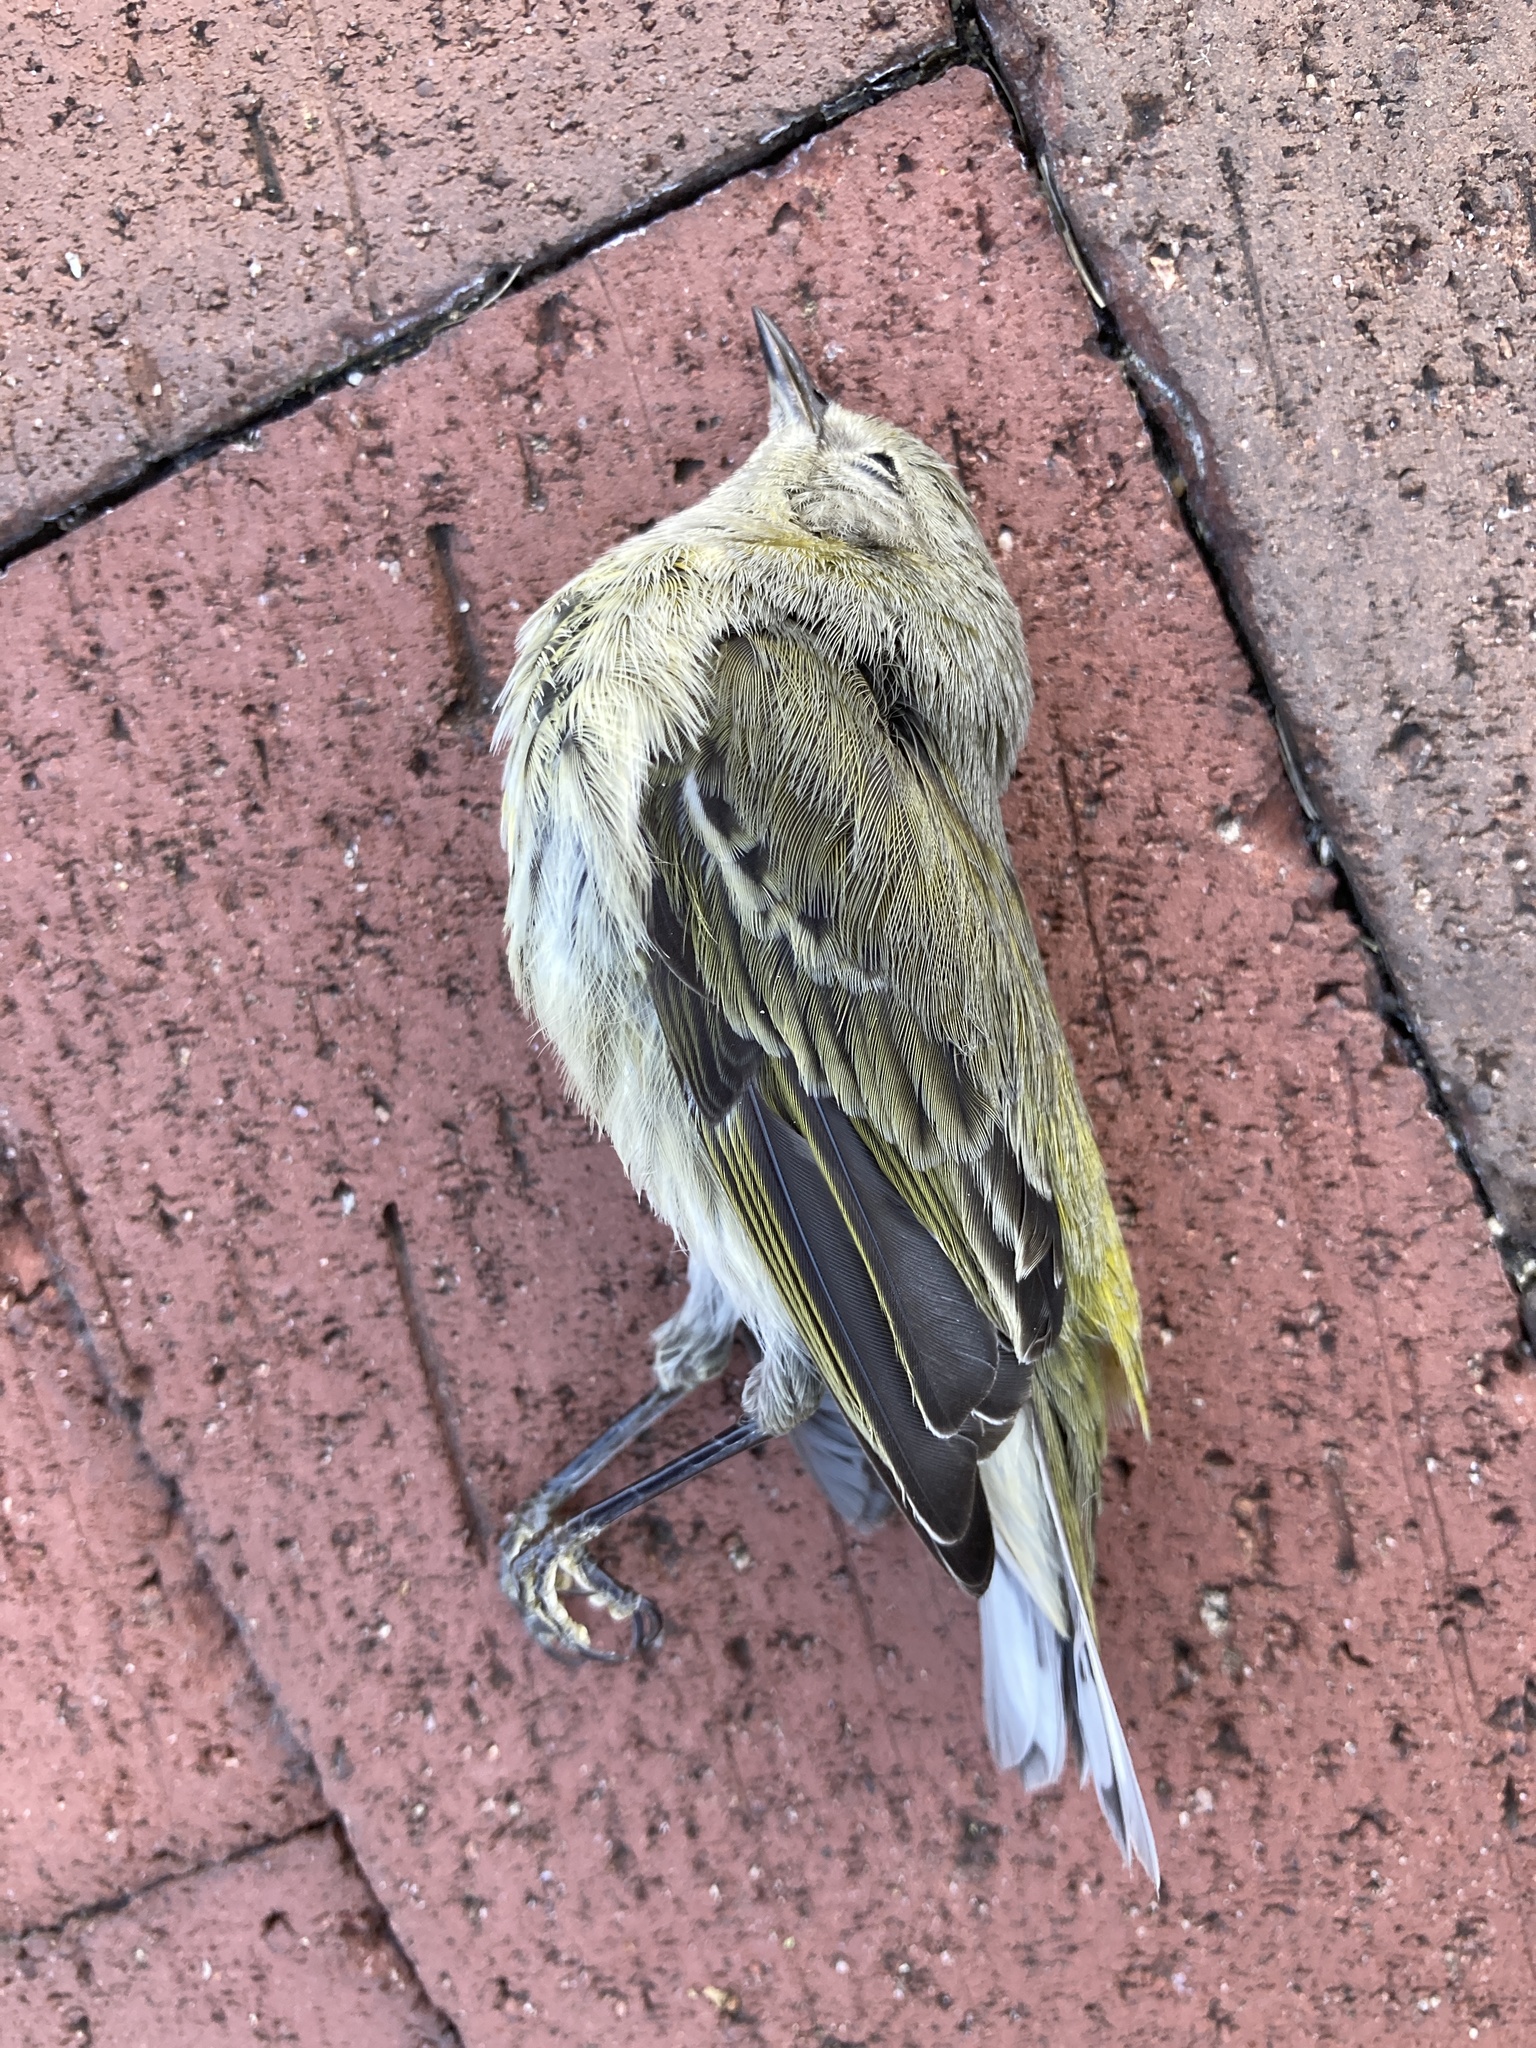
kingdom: Animalia
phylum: Chordata
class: Aves
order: Passeriformes
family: Parulidae
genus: Setophaga
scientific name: Setophaga tigrina
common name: Cape may warbler
